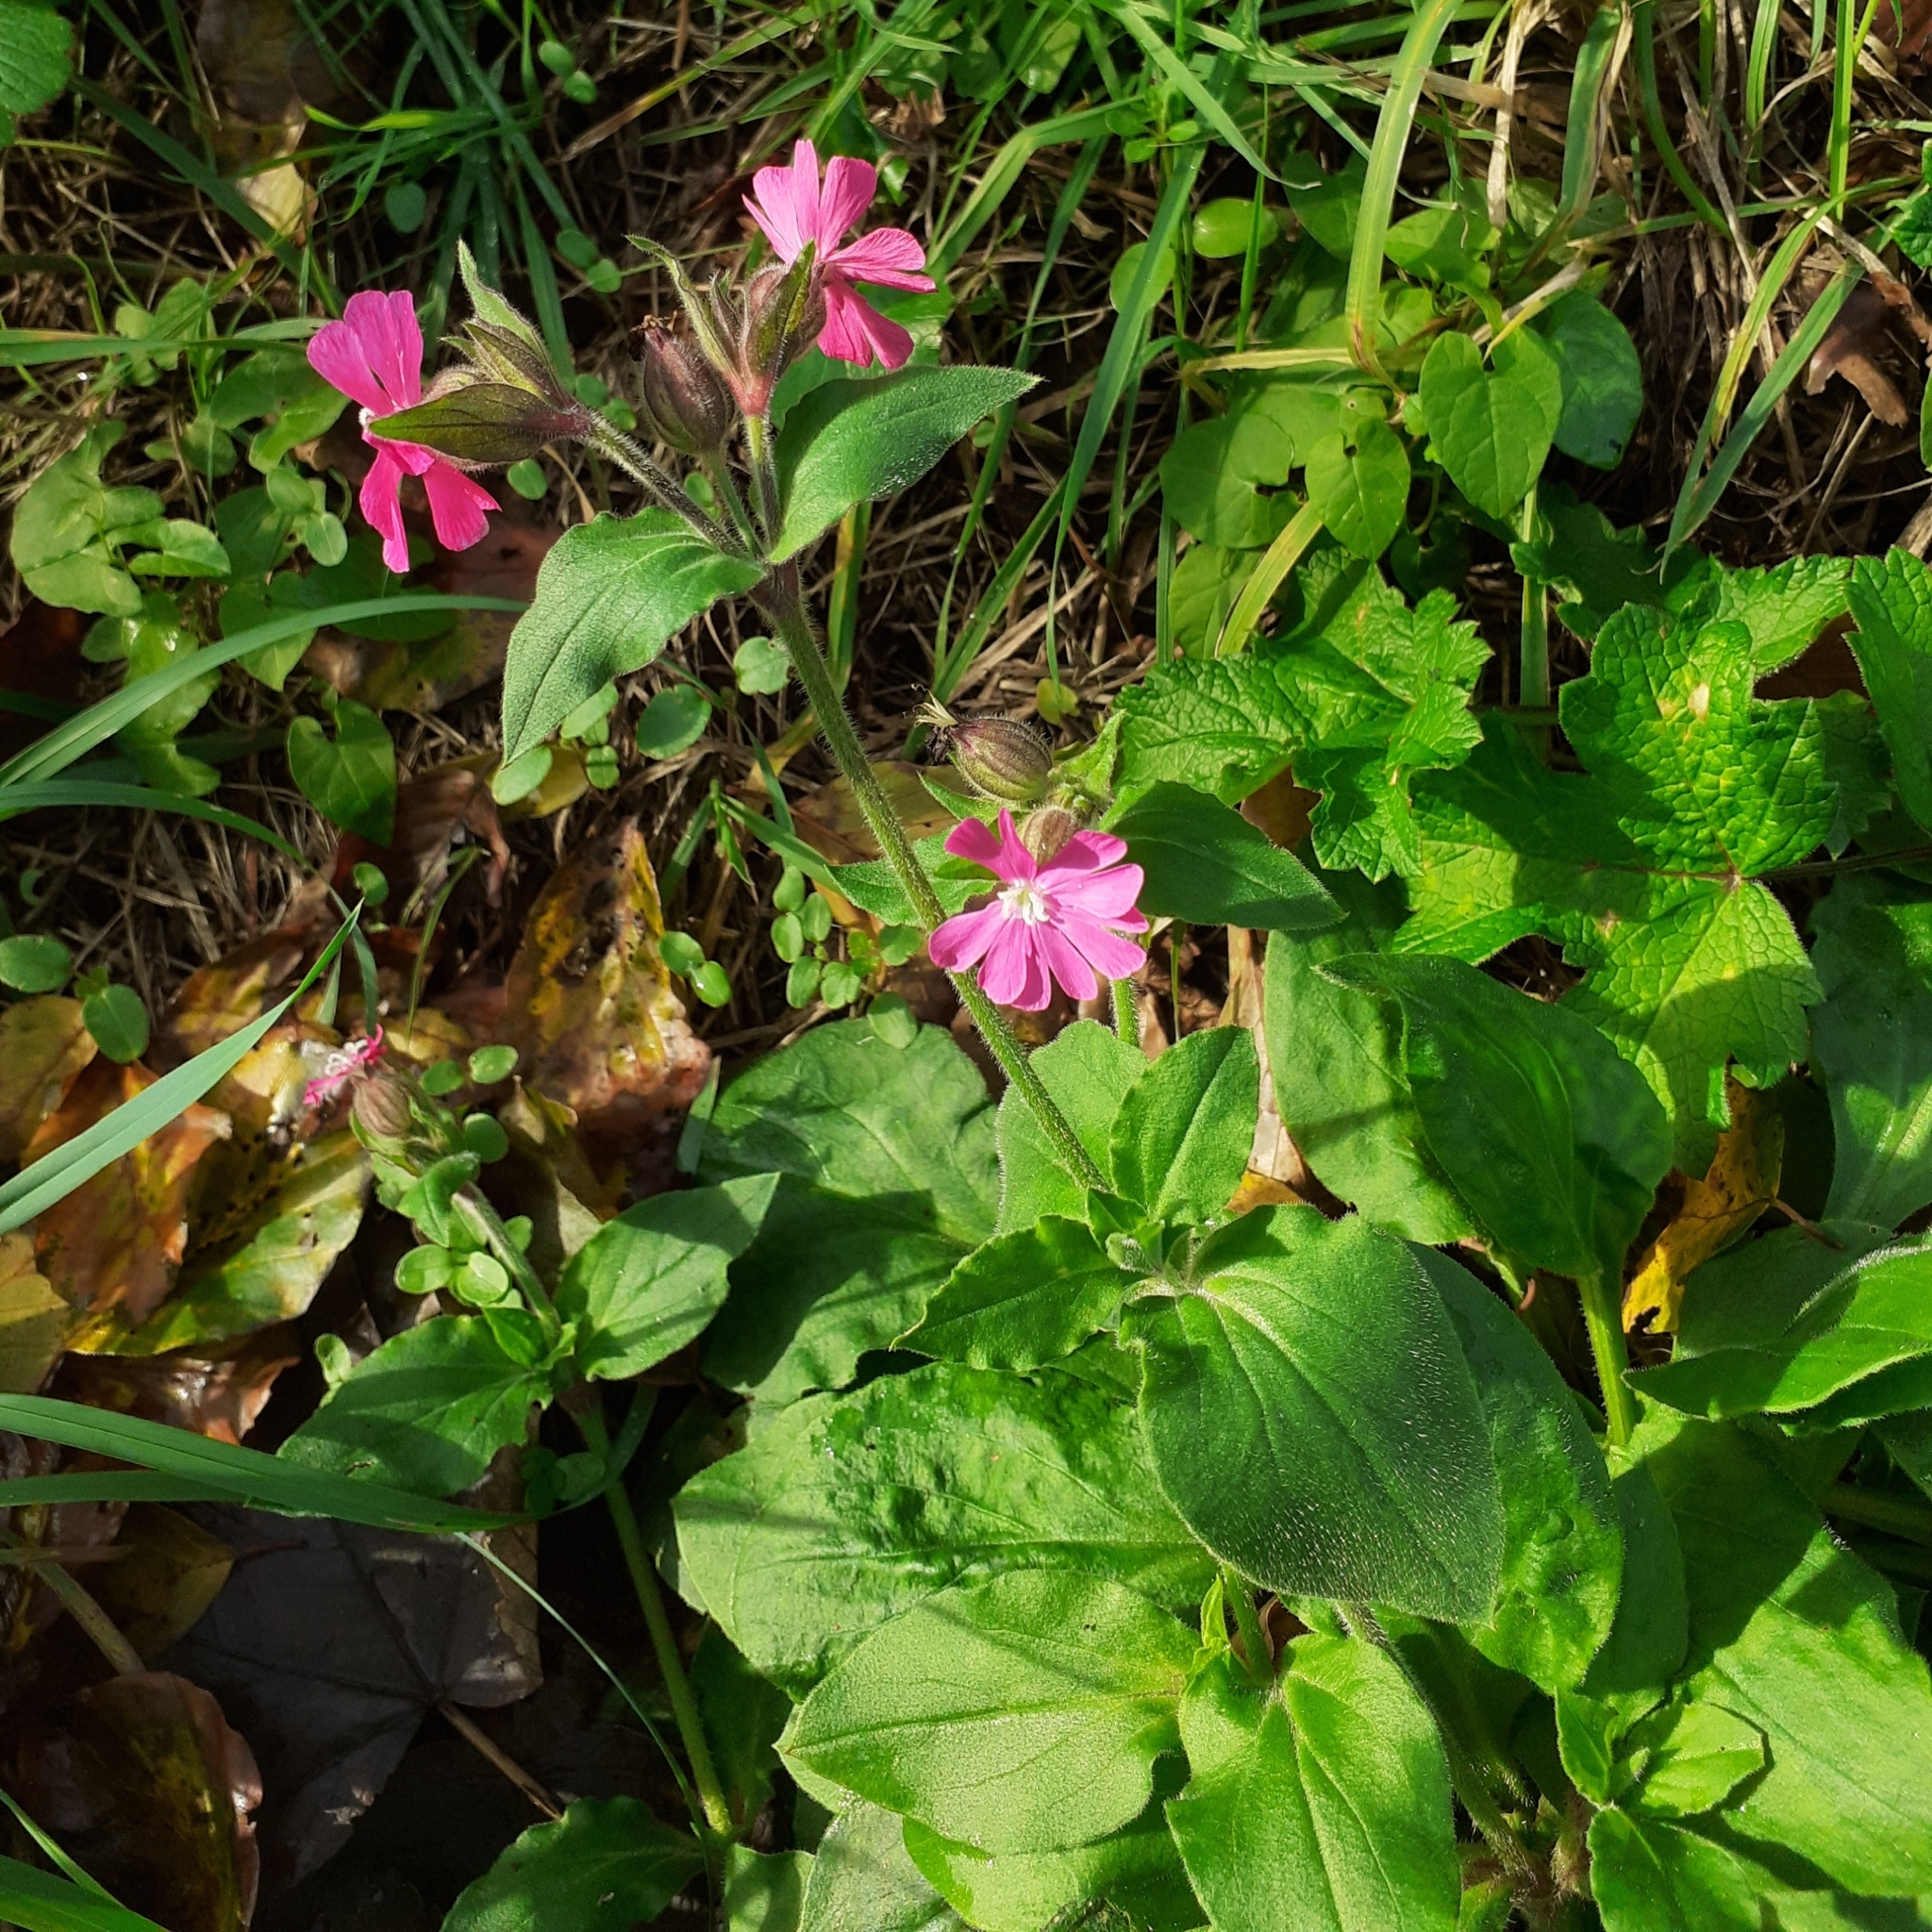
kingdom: Plantae
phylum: Tracheophyta
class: Magnoliopsida
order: Caryophyllales
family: Caryophyllaceae
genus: Silene
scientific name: Silene dioica
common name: Red campion
